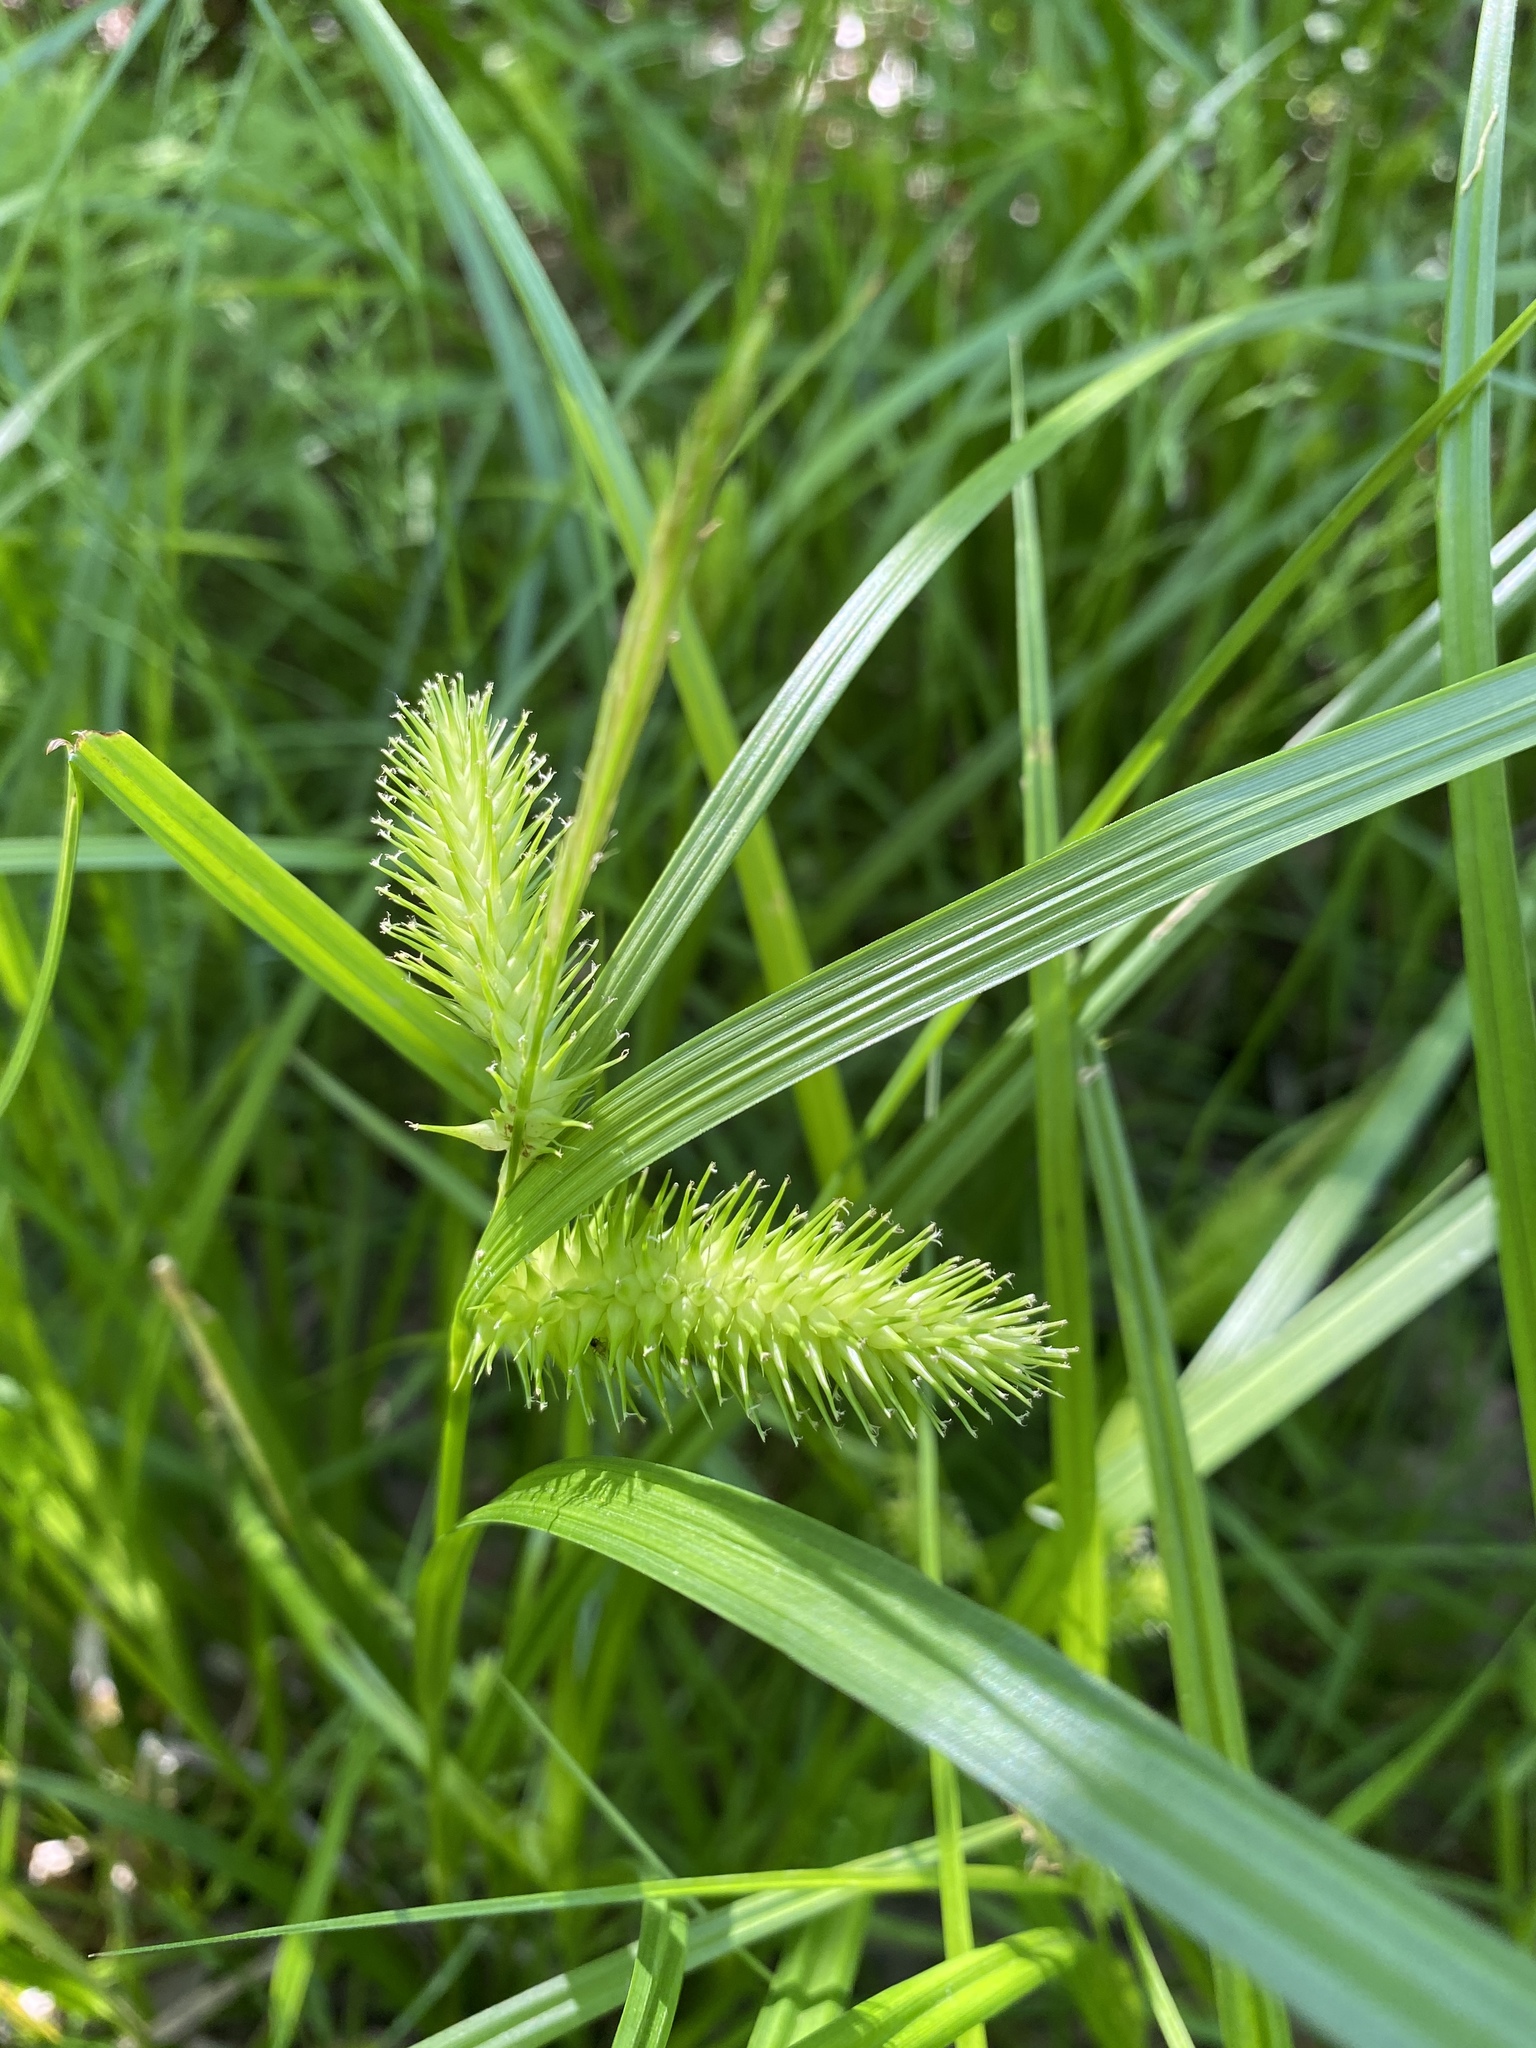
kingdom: Plantae
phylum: Tracheophyta
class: Liliopsida
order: Poales
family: Cyperaceae
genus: Carex
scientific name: Carex lurida
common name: Sallow sedge
